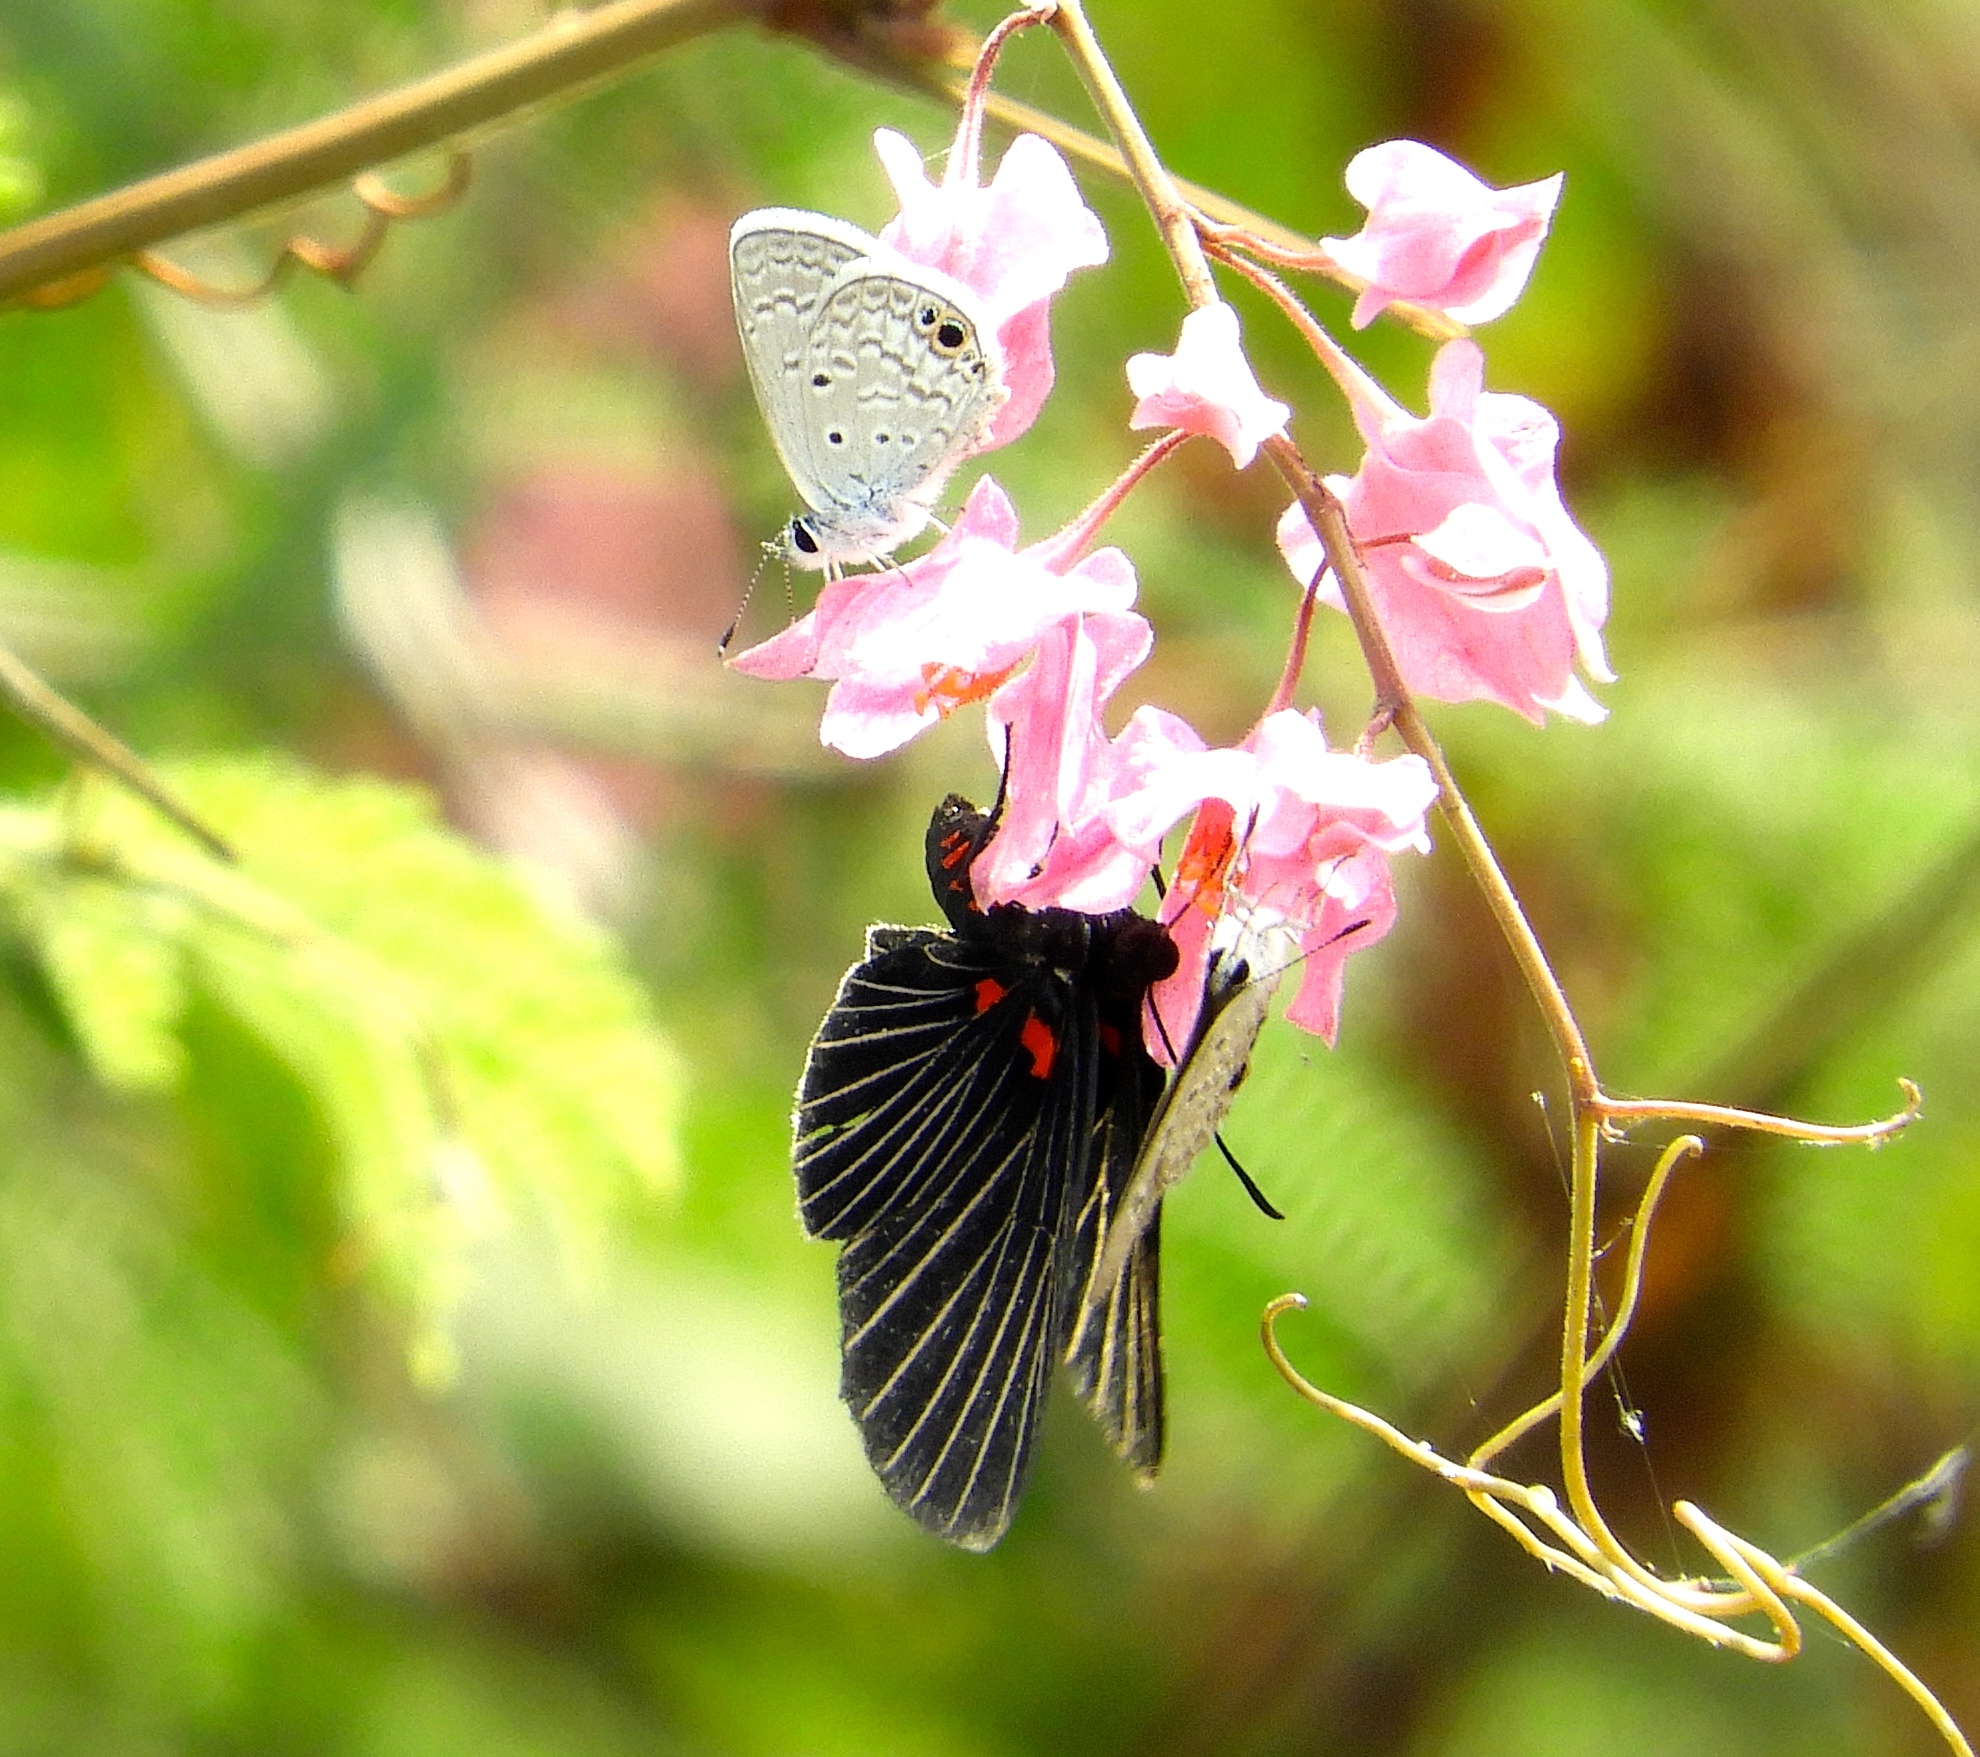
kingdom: Animalia
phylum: Arthropoda
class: Insecta
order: Lepidoptera
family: Lycaenidae
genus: Hemiargus
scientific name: Hemiargus ceraunus
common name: Ceraunus blue
